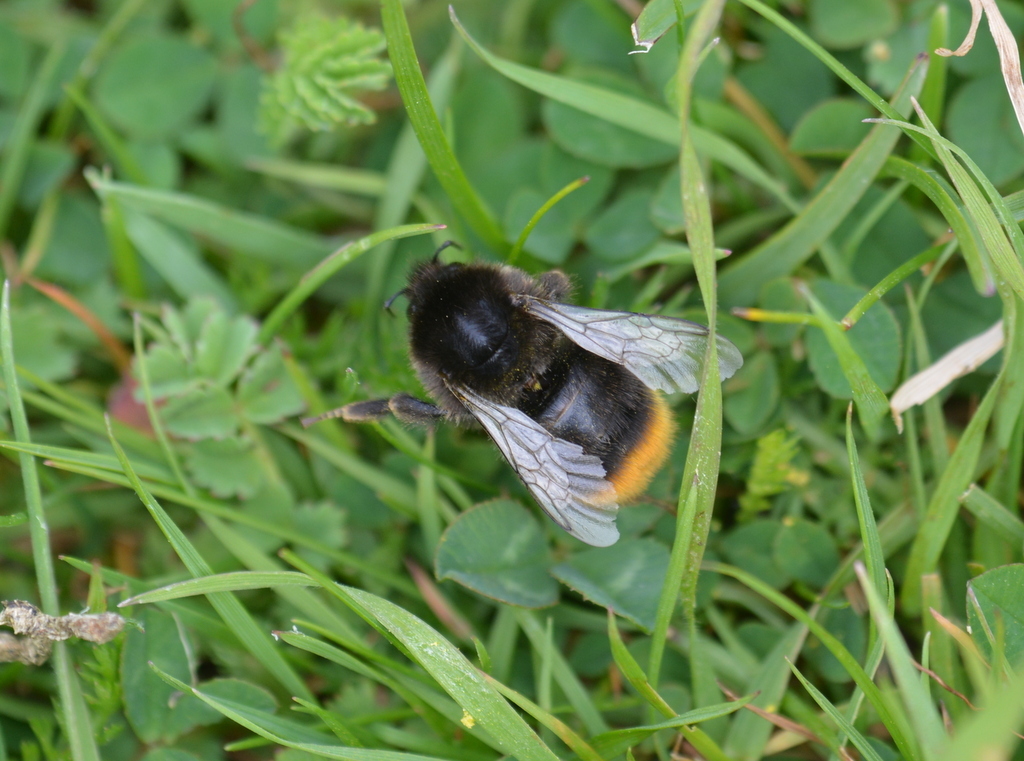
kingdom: Animalia
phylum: Arthropoda
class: Insecta
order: Hymenoptera
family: Apidae
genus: Bombus
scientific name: Bombus lapidarius
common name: Large red-tailed humble-bee
